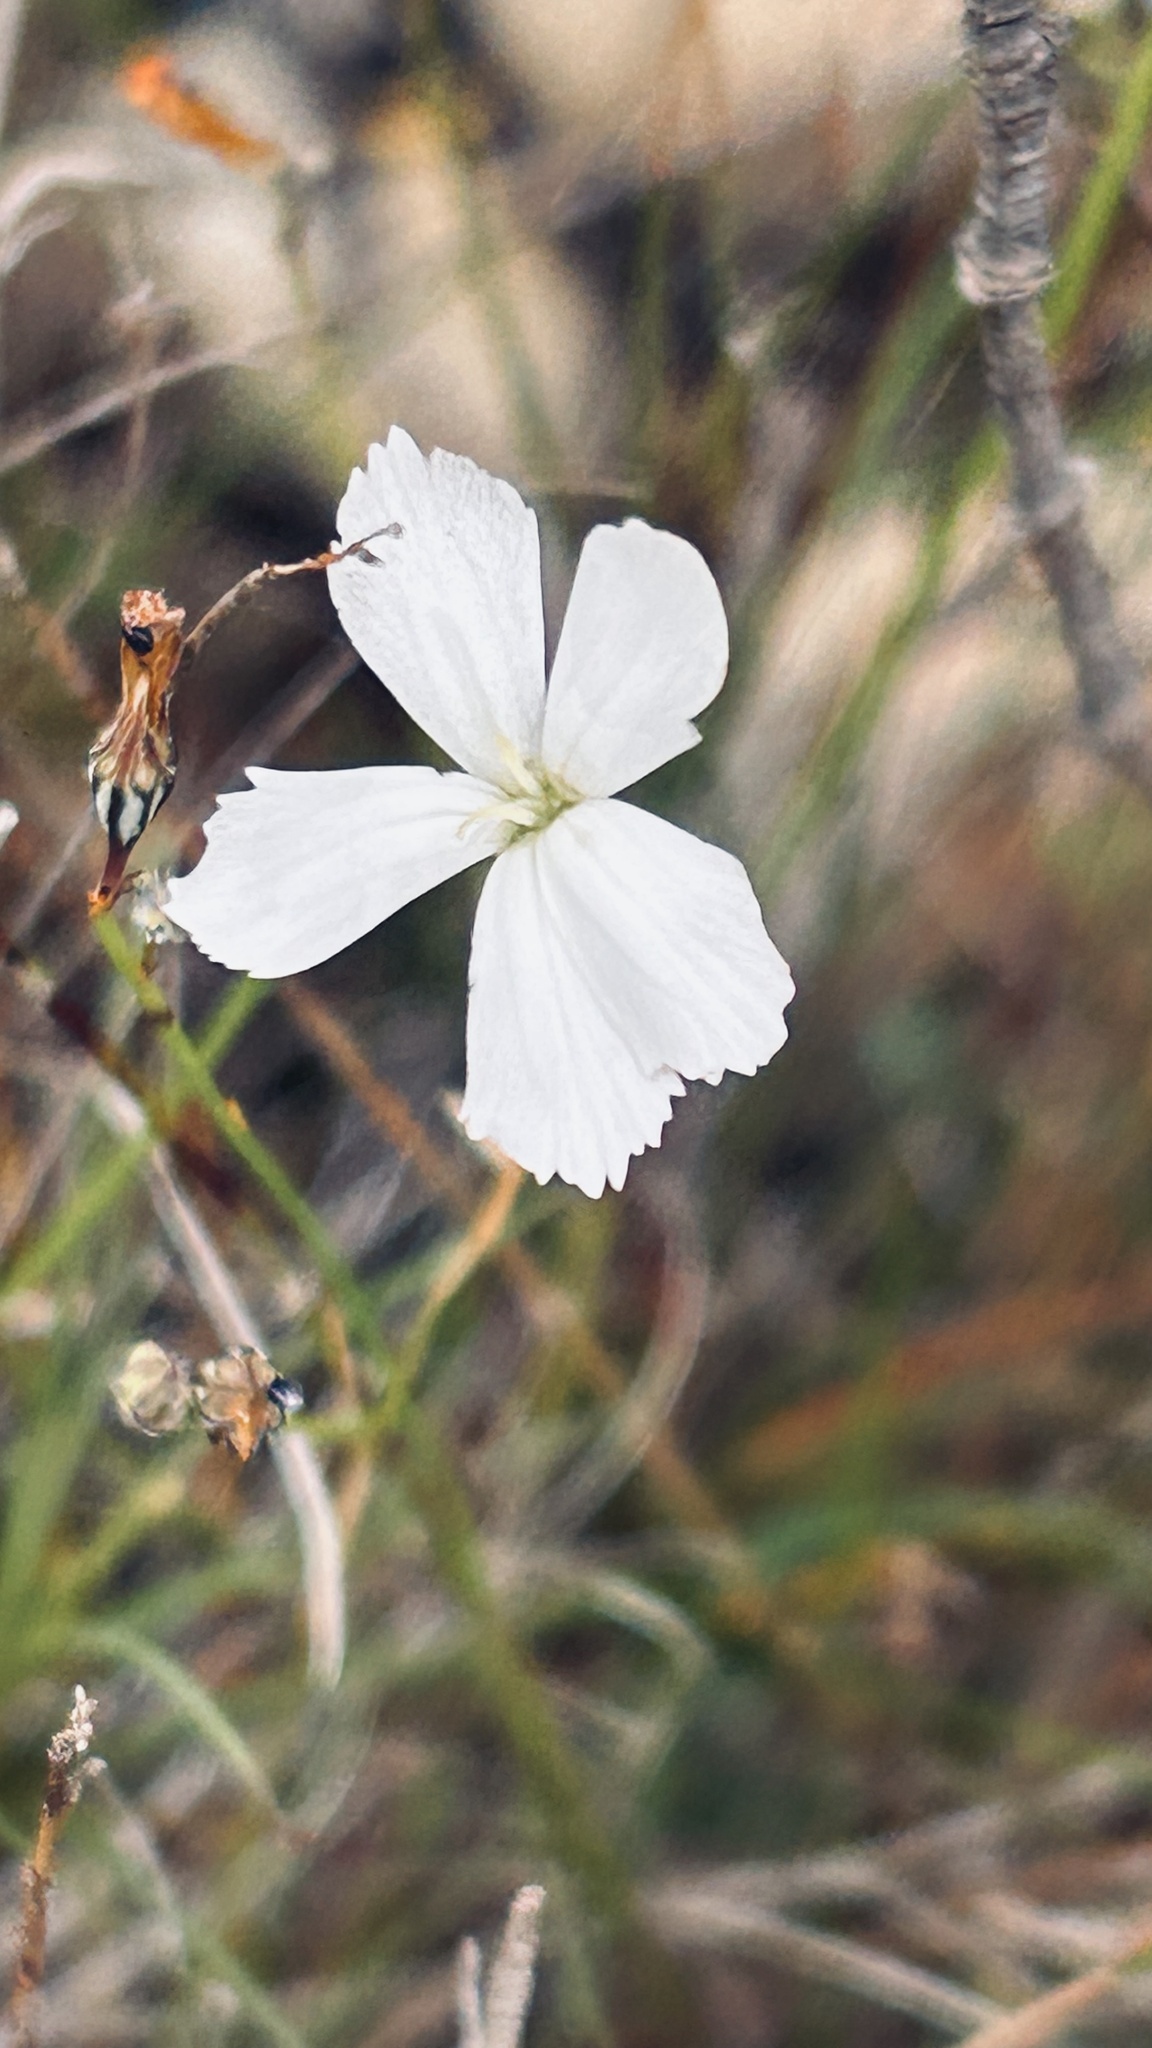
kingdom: Plantae
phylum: Tracheophyta
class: Magnoliopsida
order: Caryophyllales
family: Caryophyllaceae
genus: Dianthus
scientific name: Dianthus albens
